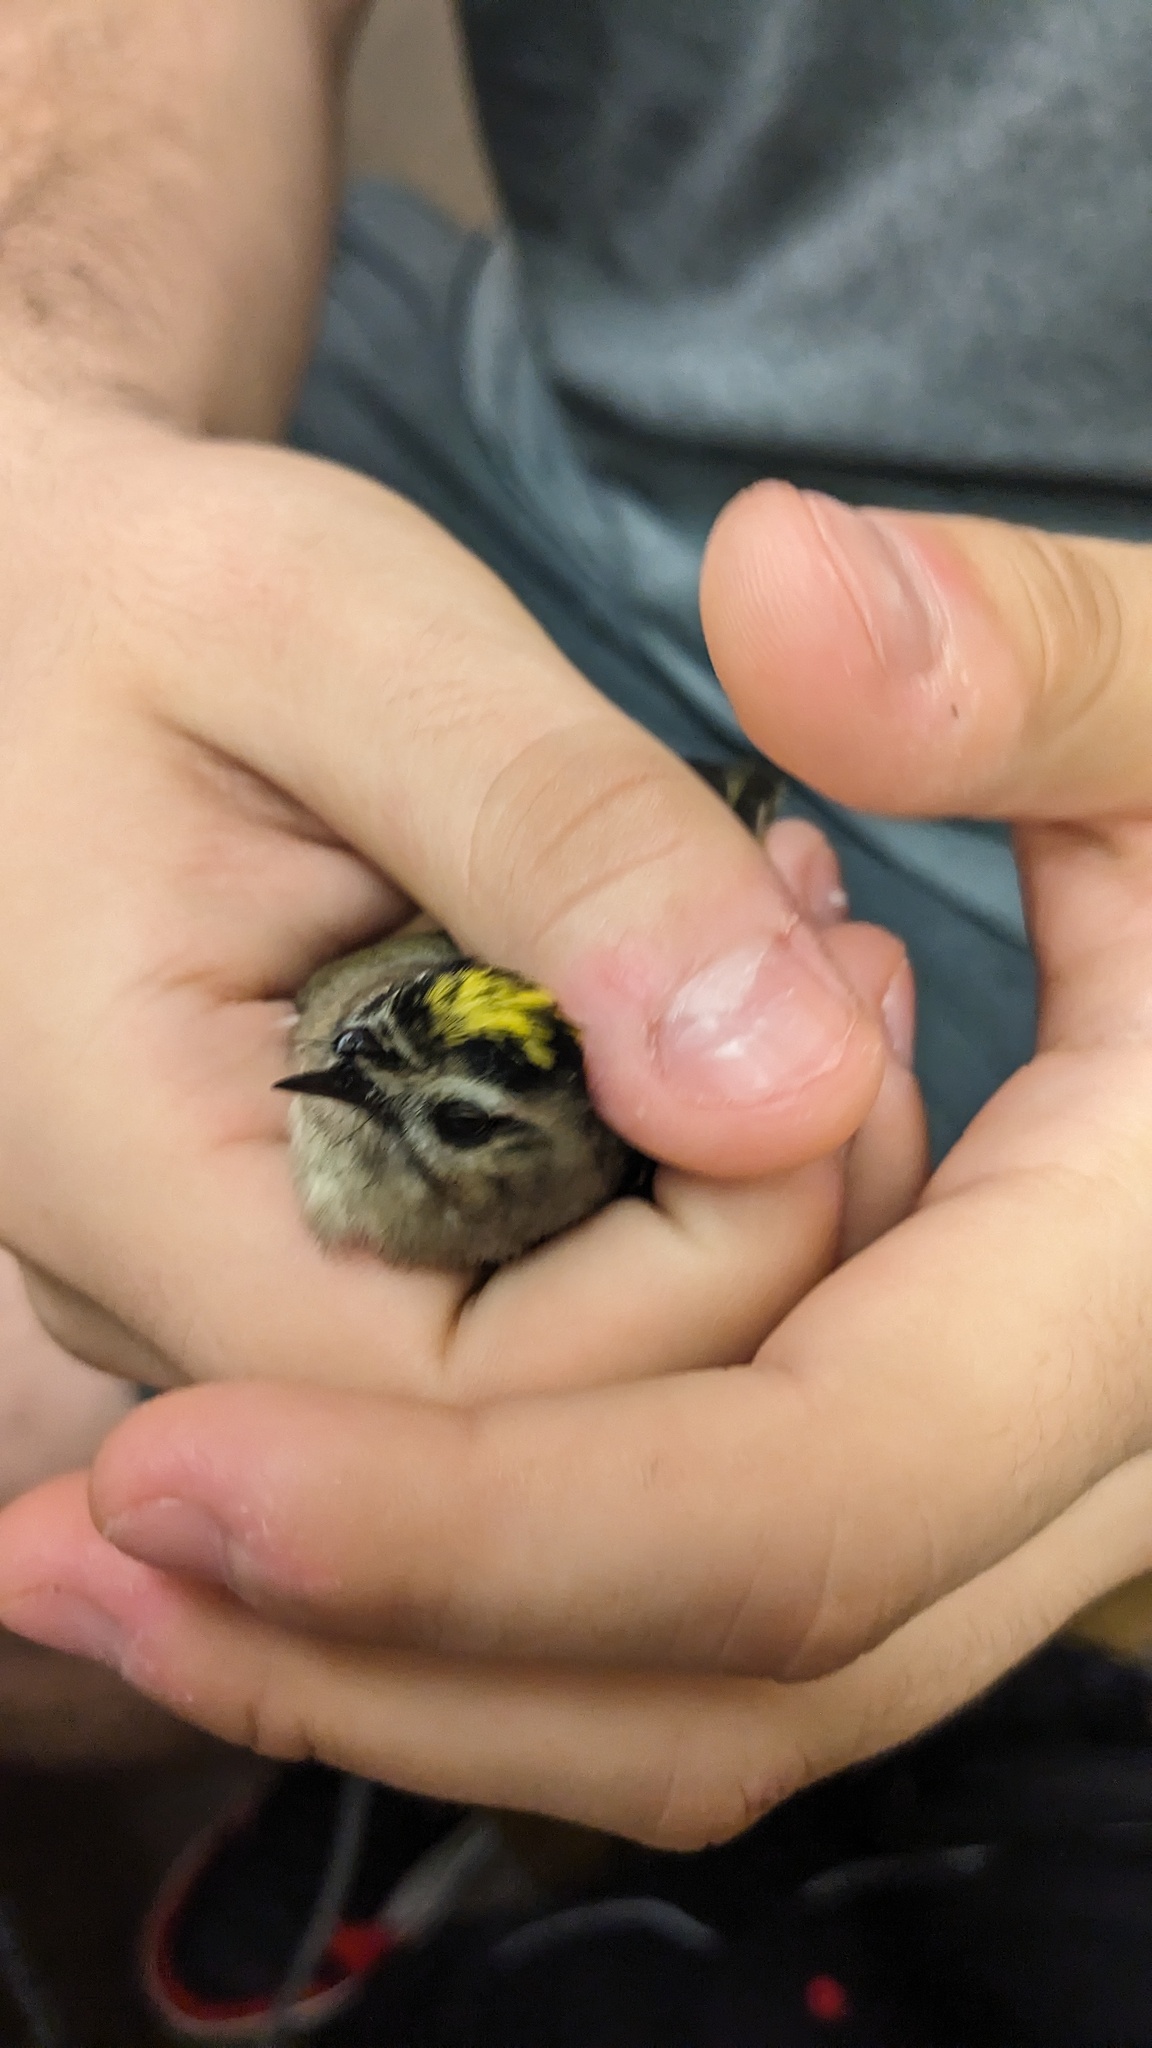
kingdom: Animalia
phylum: Chordata
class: Aves
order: Passeriformes
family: Regulidae
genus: Regulus
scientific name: Regulus satrapa
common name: Golden-crowned kinglet
